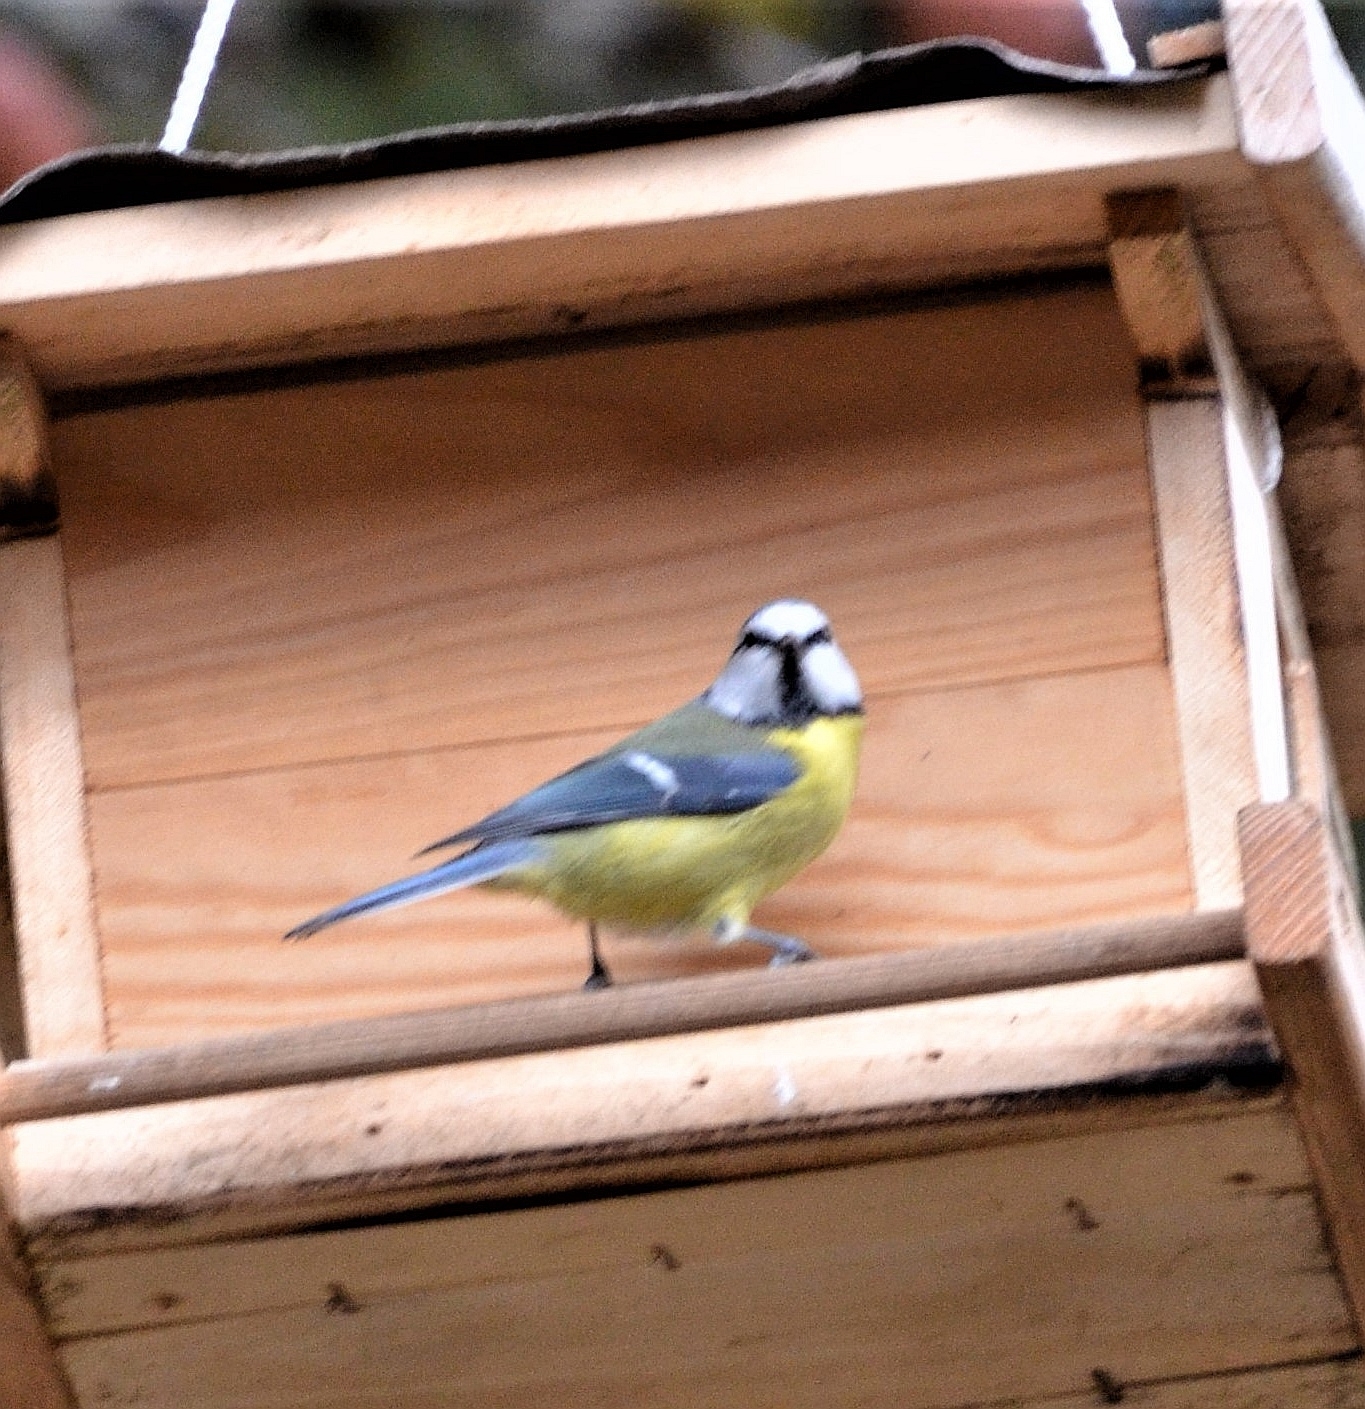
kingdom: Animalia
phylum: Chordata
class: Aves
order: Passeriformes
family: Paridae
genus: Cyanistes
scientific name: Cyanistes caeruleus
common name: Eurasian blue tit
